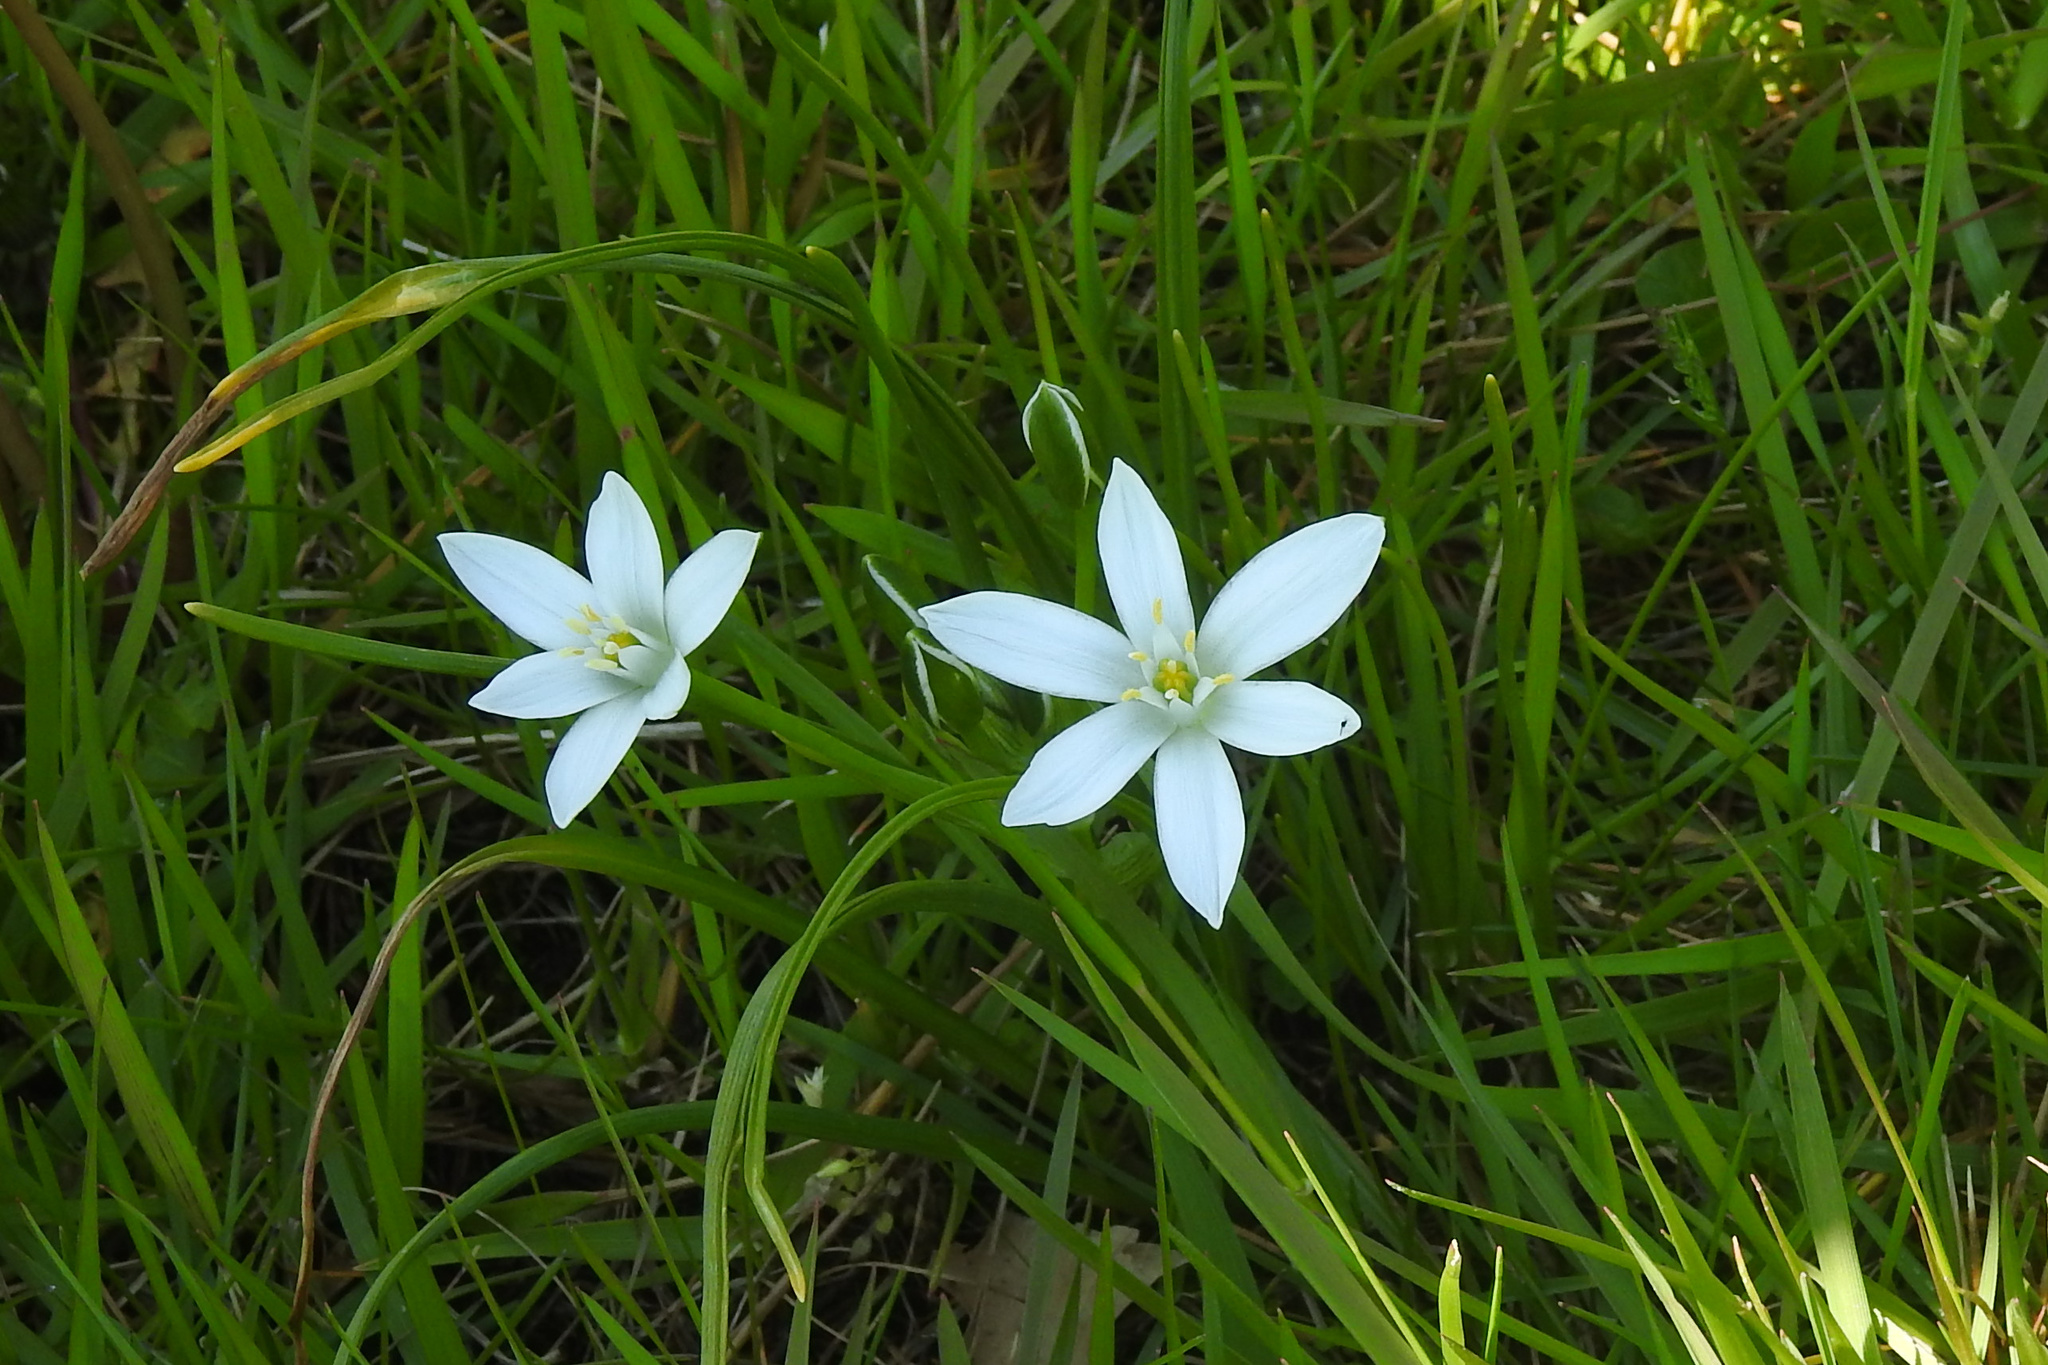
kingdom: Plantae
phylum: Tracheophyta
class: Liliopsida
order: Asparagales
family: Asparagaceae
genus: Ornithogalum
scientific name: Ornithogalum umbellatum
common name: Garden star-of-bethlehem
